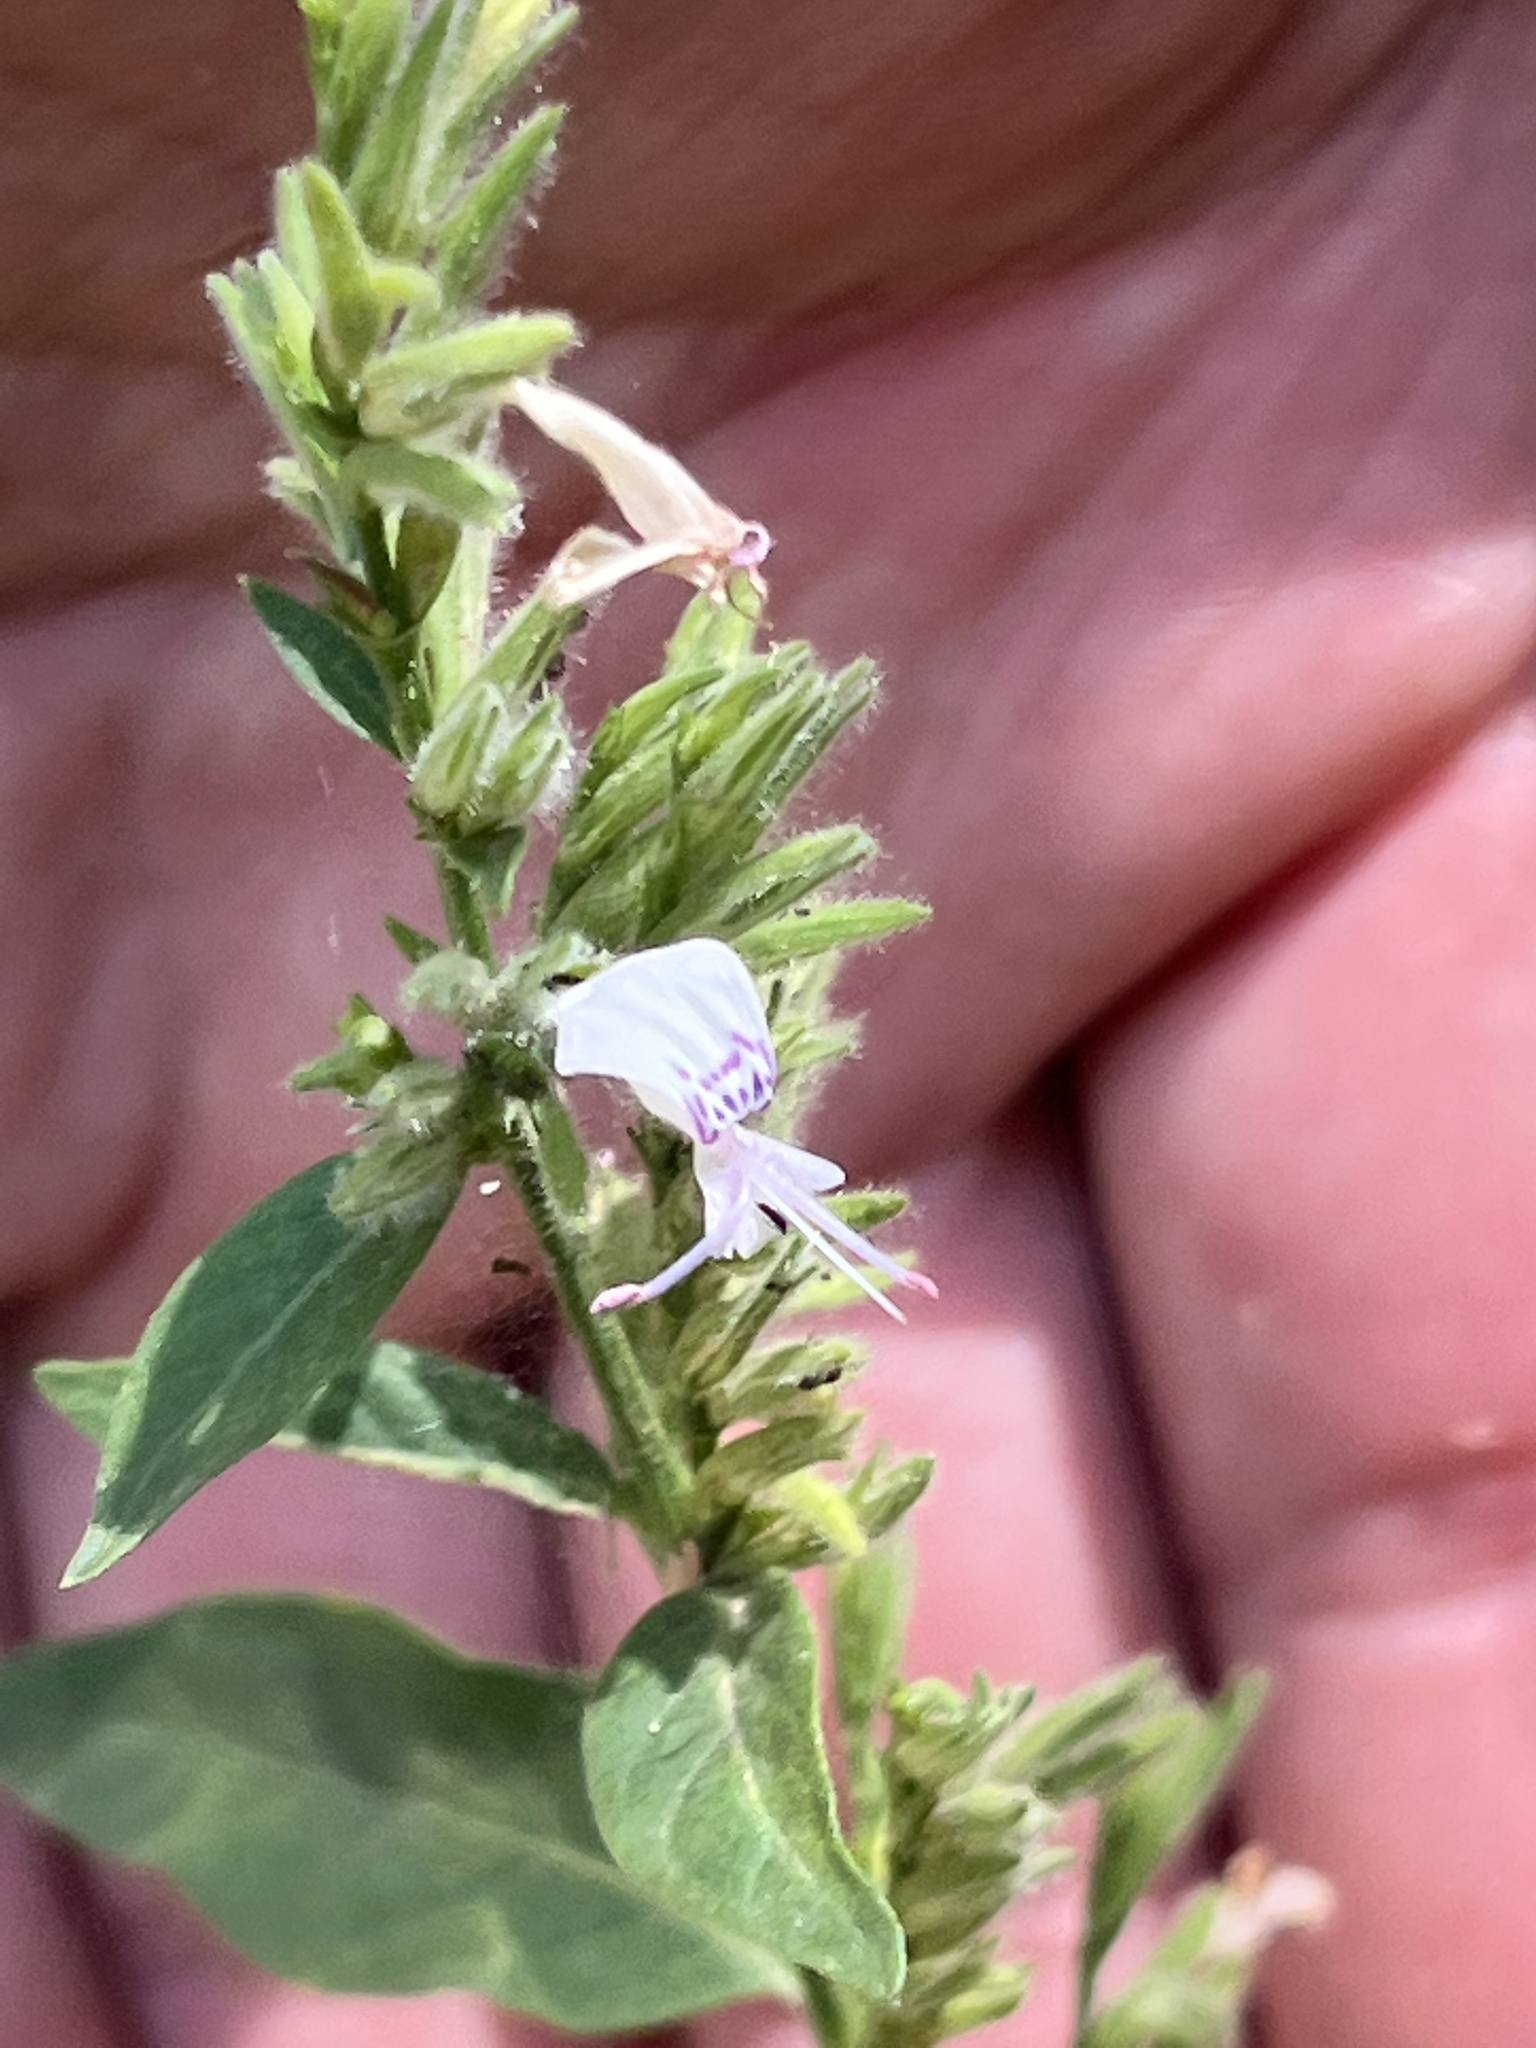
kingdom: Plantae
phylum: Tracheophyta
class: Magnoliopsida
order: Lamiales
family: Acanthaceae
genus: Hypoestes
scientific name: Hypoestes forskaolii
